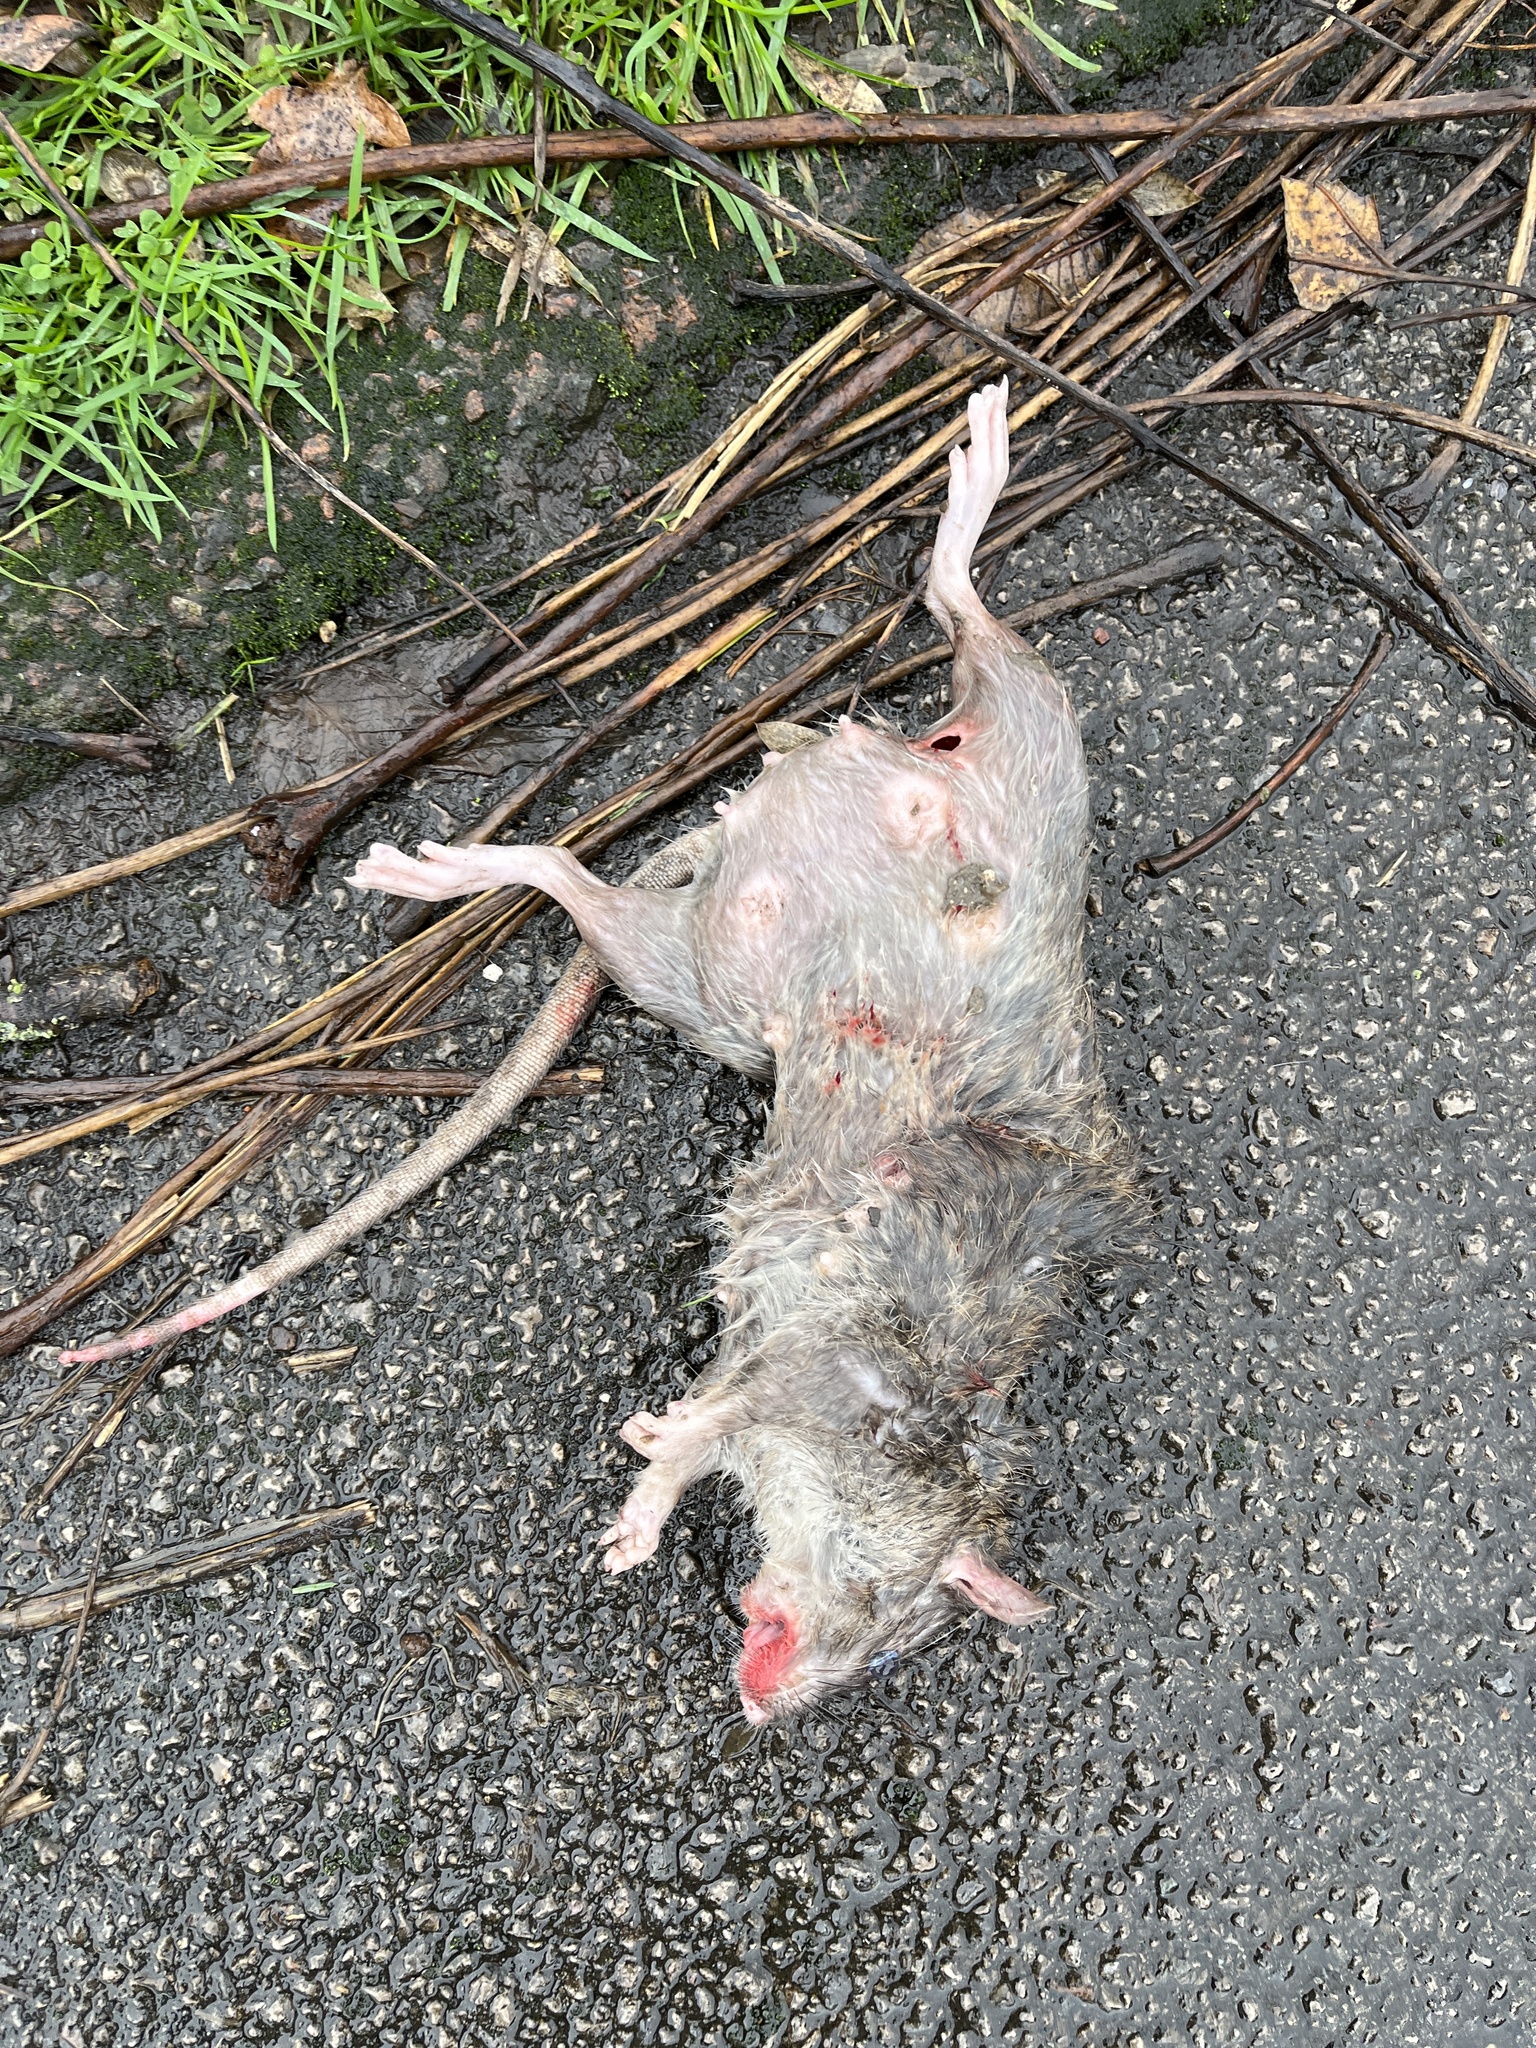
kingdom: Animalia
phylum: Chordata
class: Mammalia
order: Rodentia
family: Muridae
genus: Rattus
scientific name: Rattus norvegicus
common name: Brown rat
